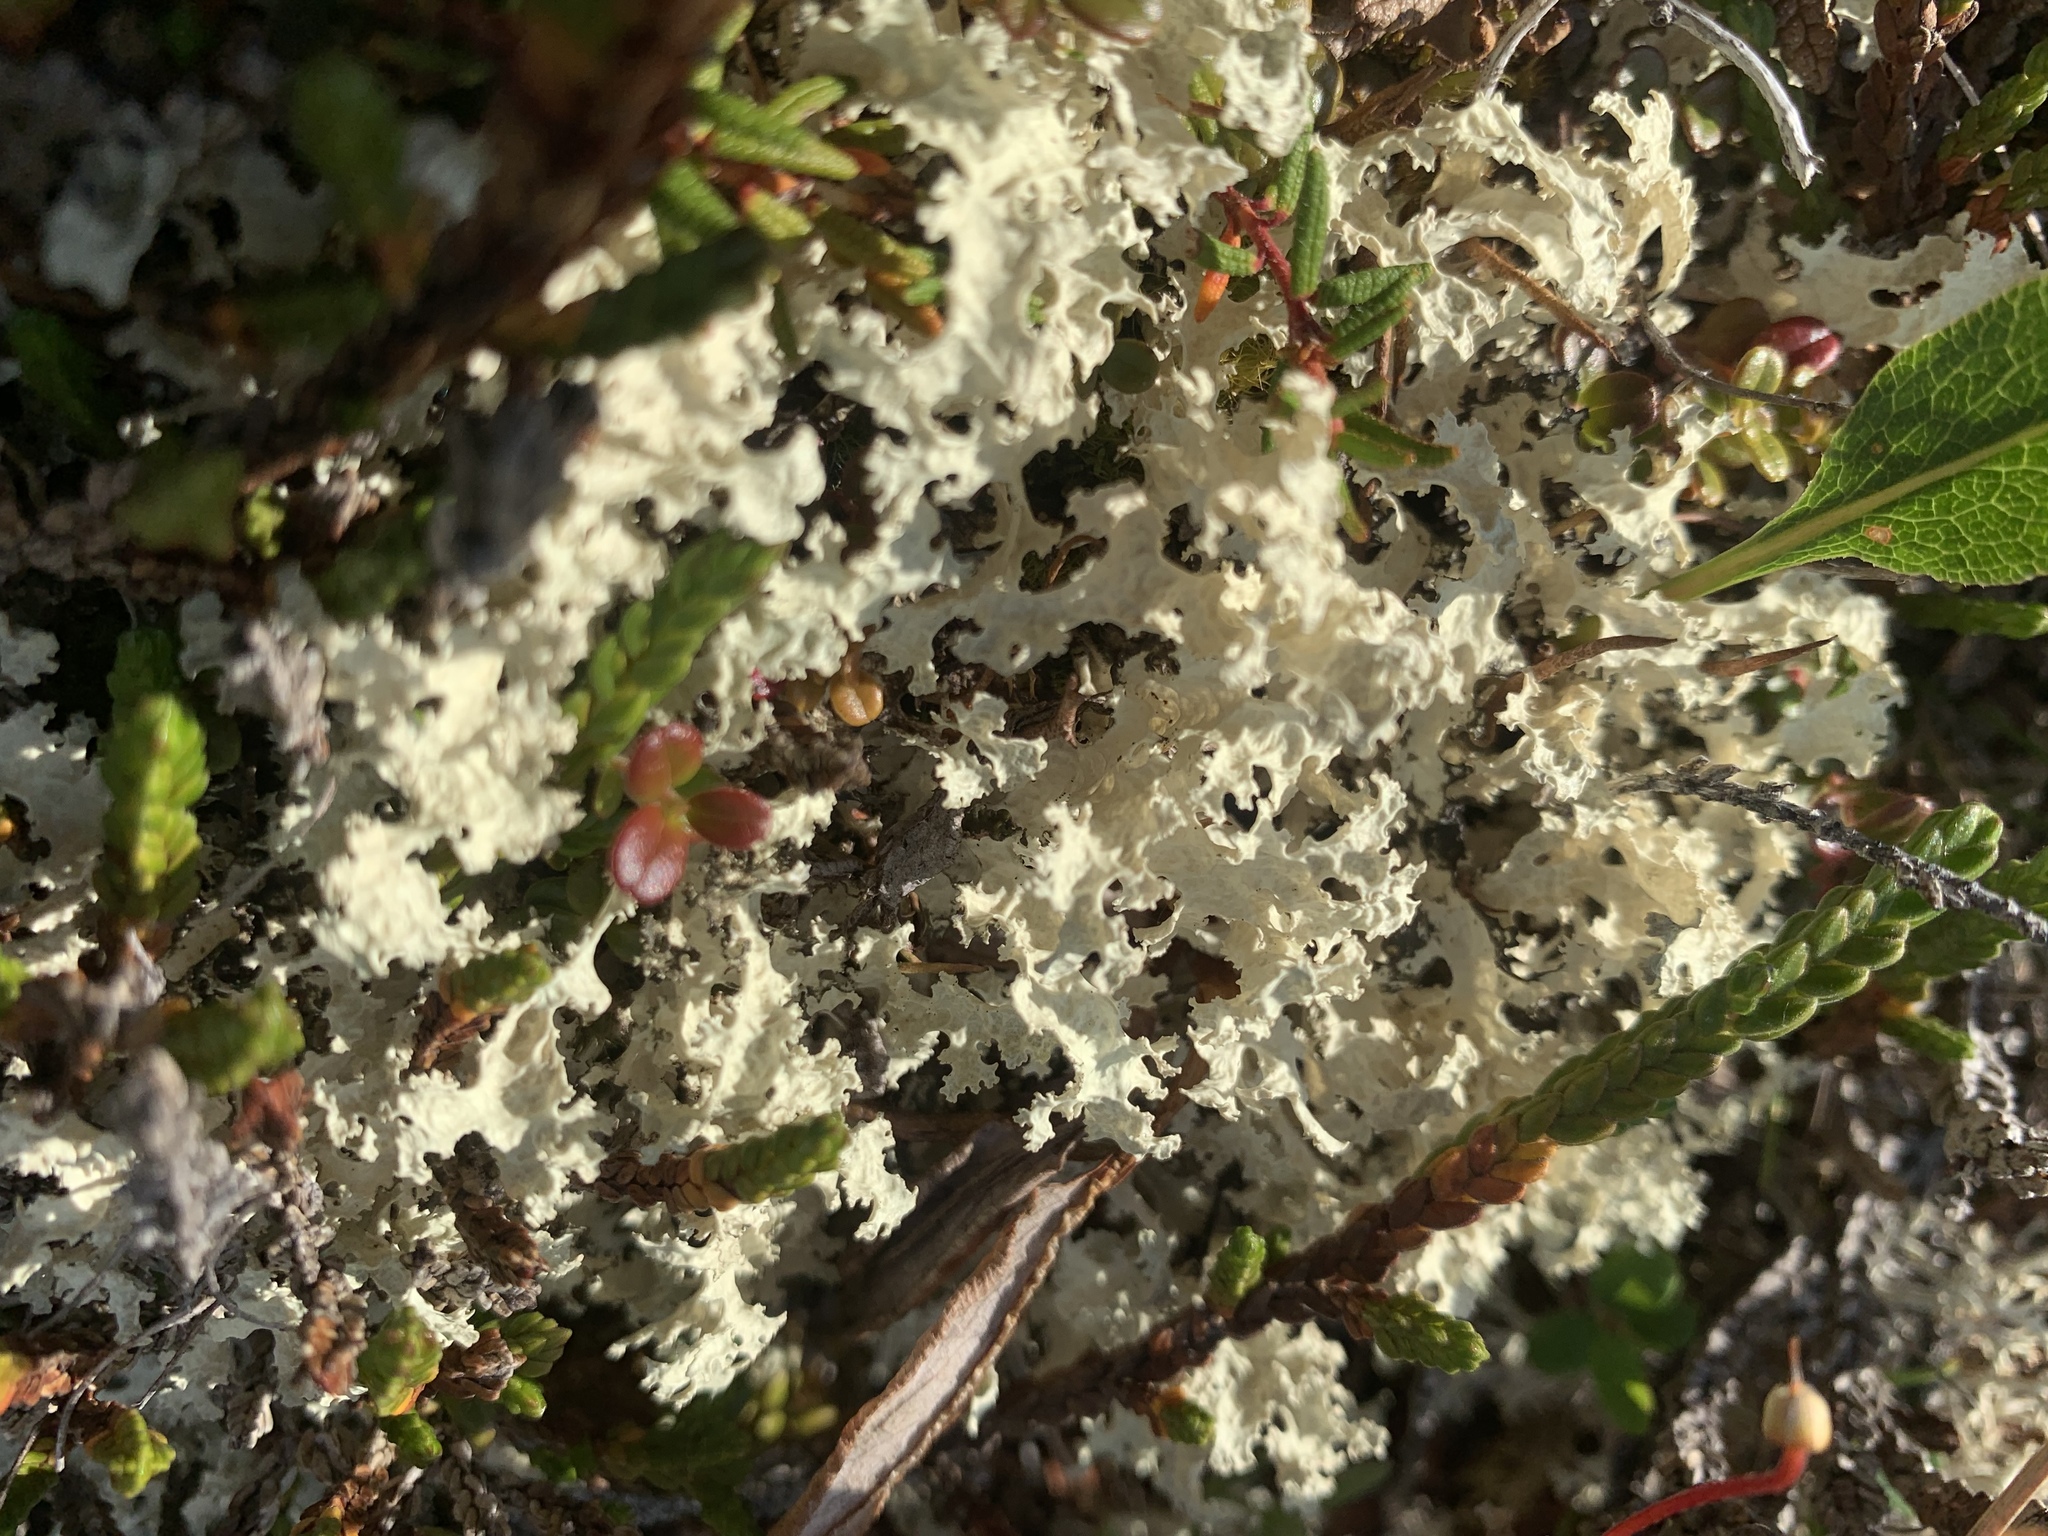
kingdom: Fungi
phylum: Ascomycota
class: Lecanoromycetes
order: Lecanorales
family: Parmeliaceae
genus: Nephromopsis
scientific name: Nephromopsis nivalis
